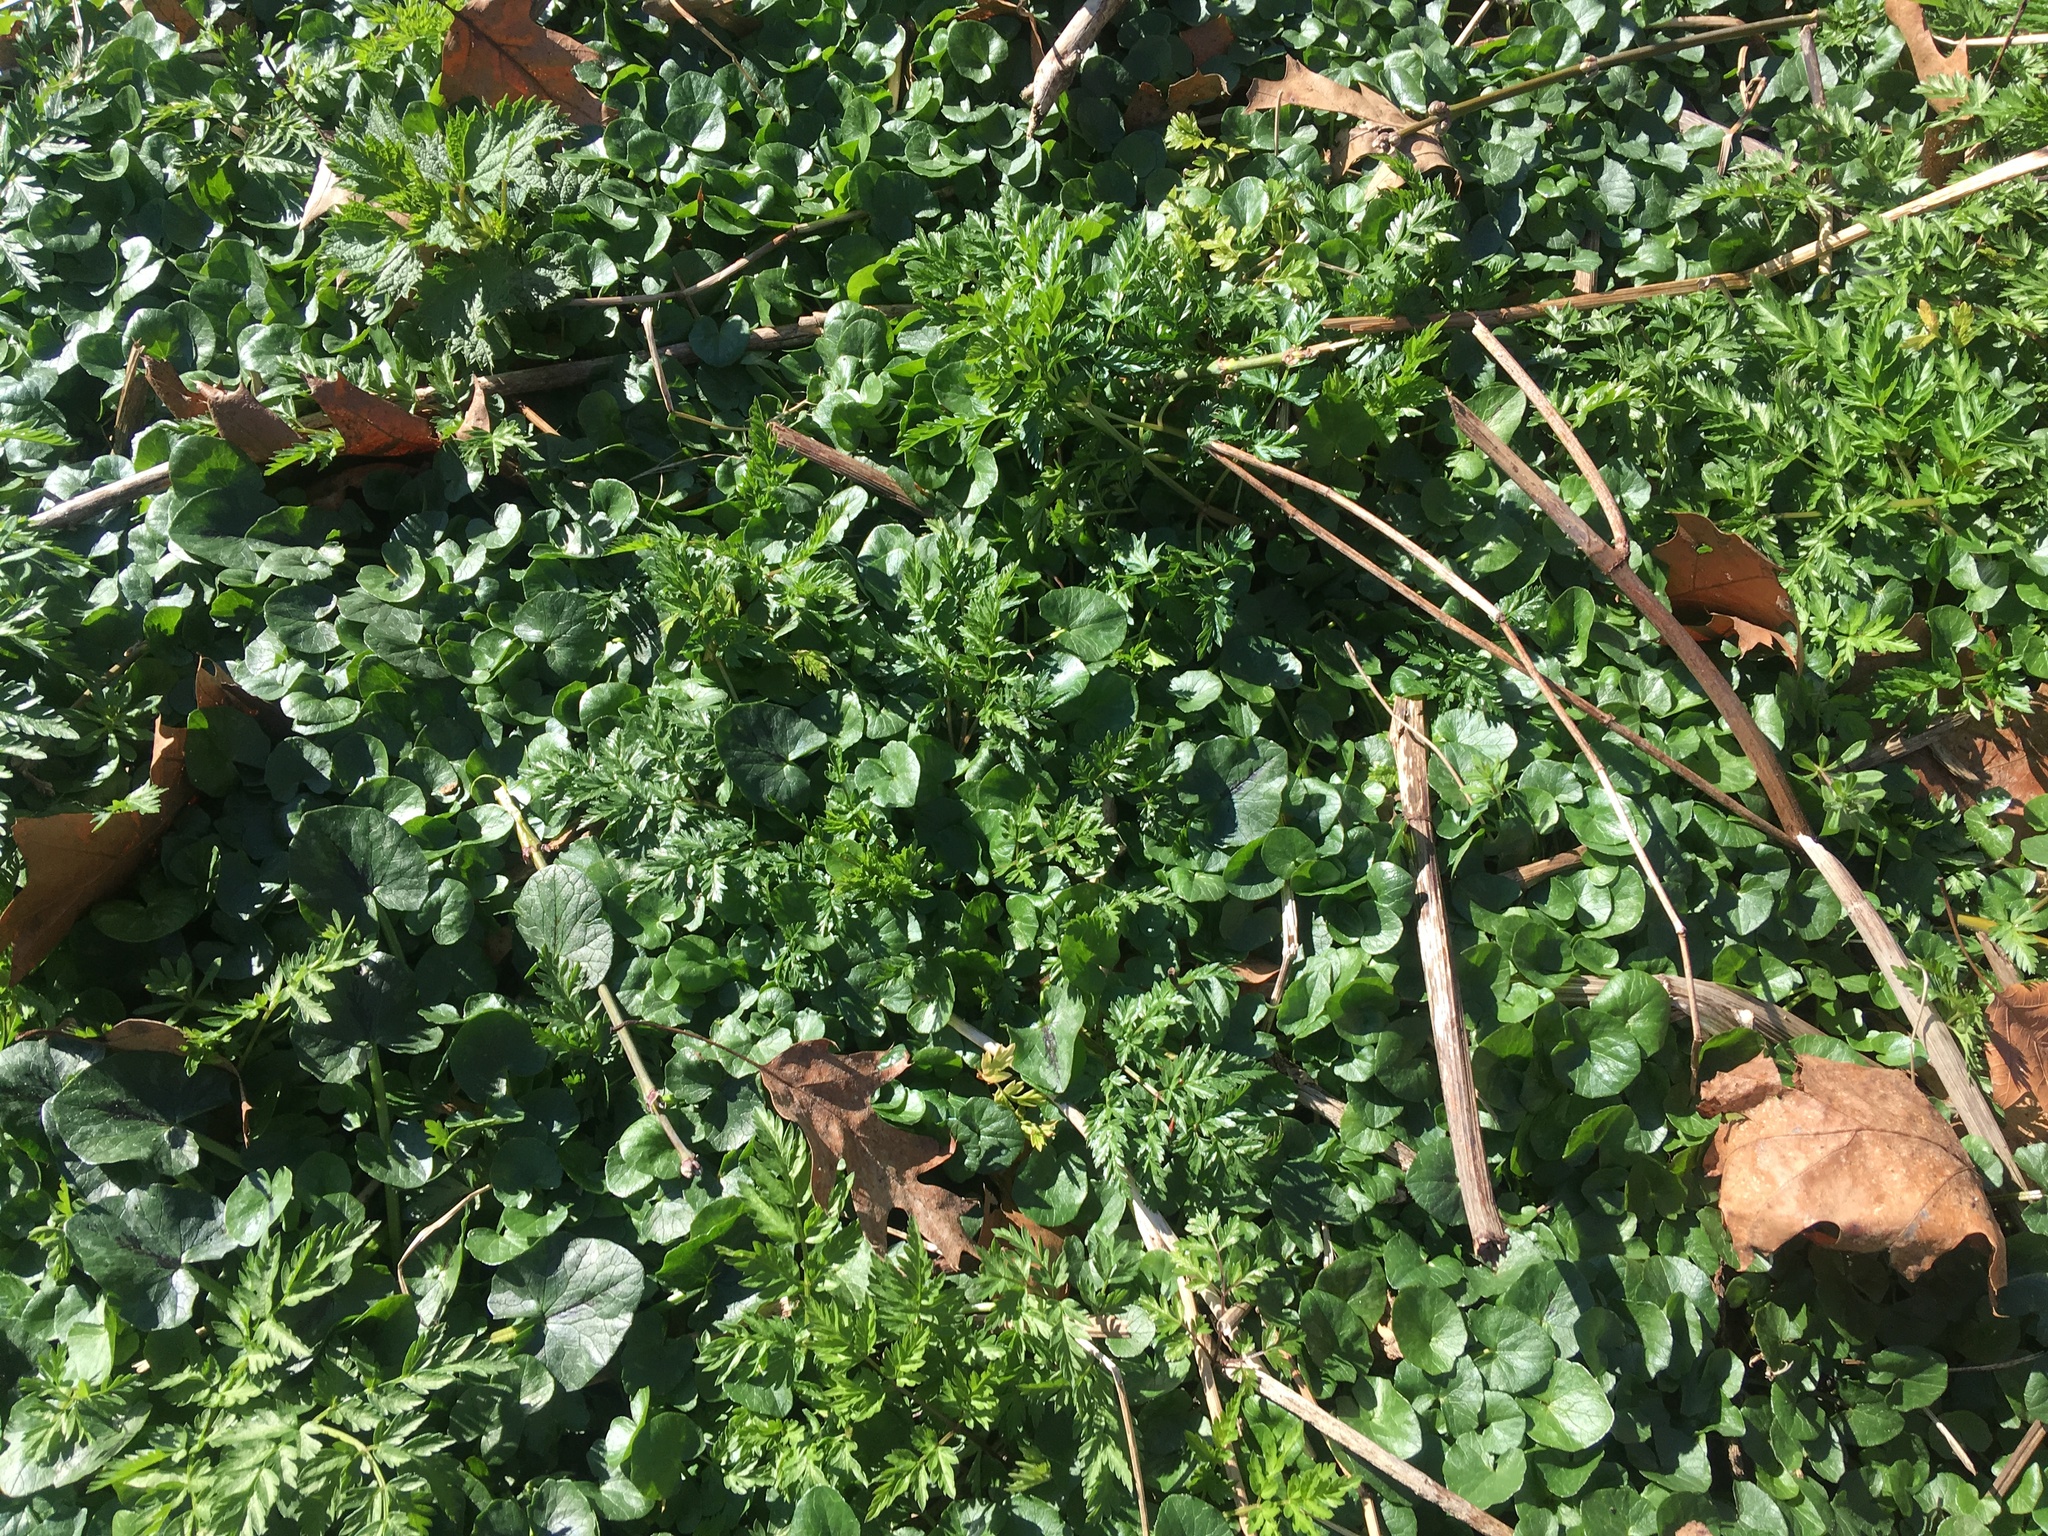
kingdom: Plantae
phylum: Tracheophyta
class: Magnoliopsida
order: Ranunculales
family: Ranunculaceae
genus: Ficaria
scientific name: Ficaria verna
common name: Lesser celandine
